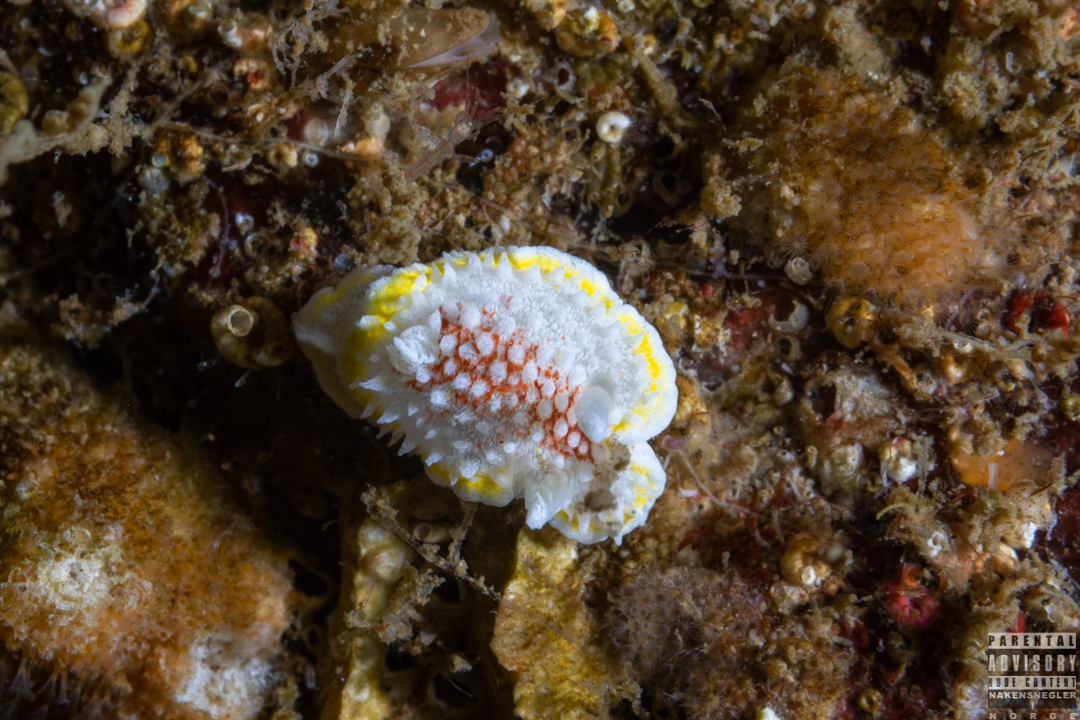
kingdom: Animalia
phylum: Mollusca
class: Gastropoda
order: Nudibranchia
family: Calycidorididae
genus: Diaphorodoris
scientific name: Diaphorodoris luteocincta
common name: Fried egg nudibranch
